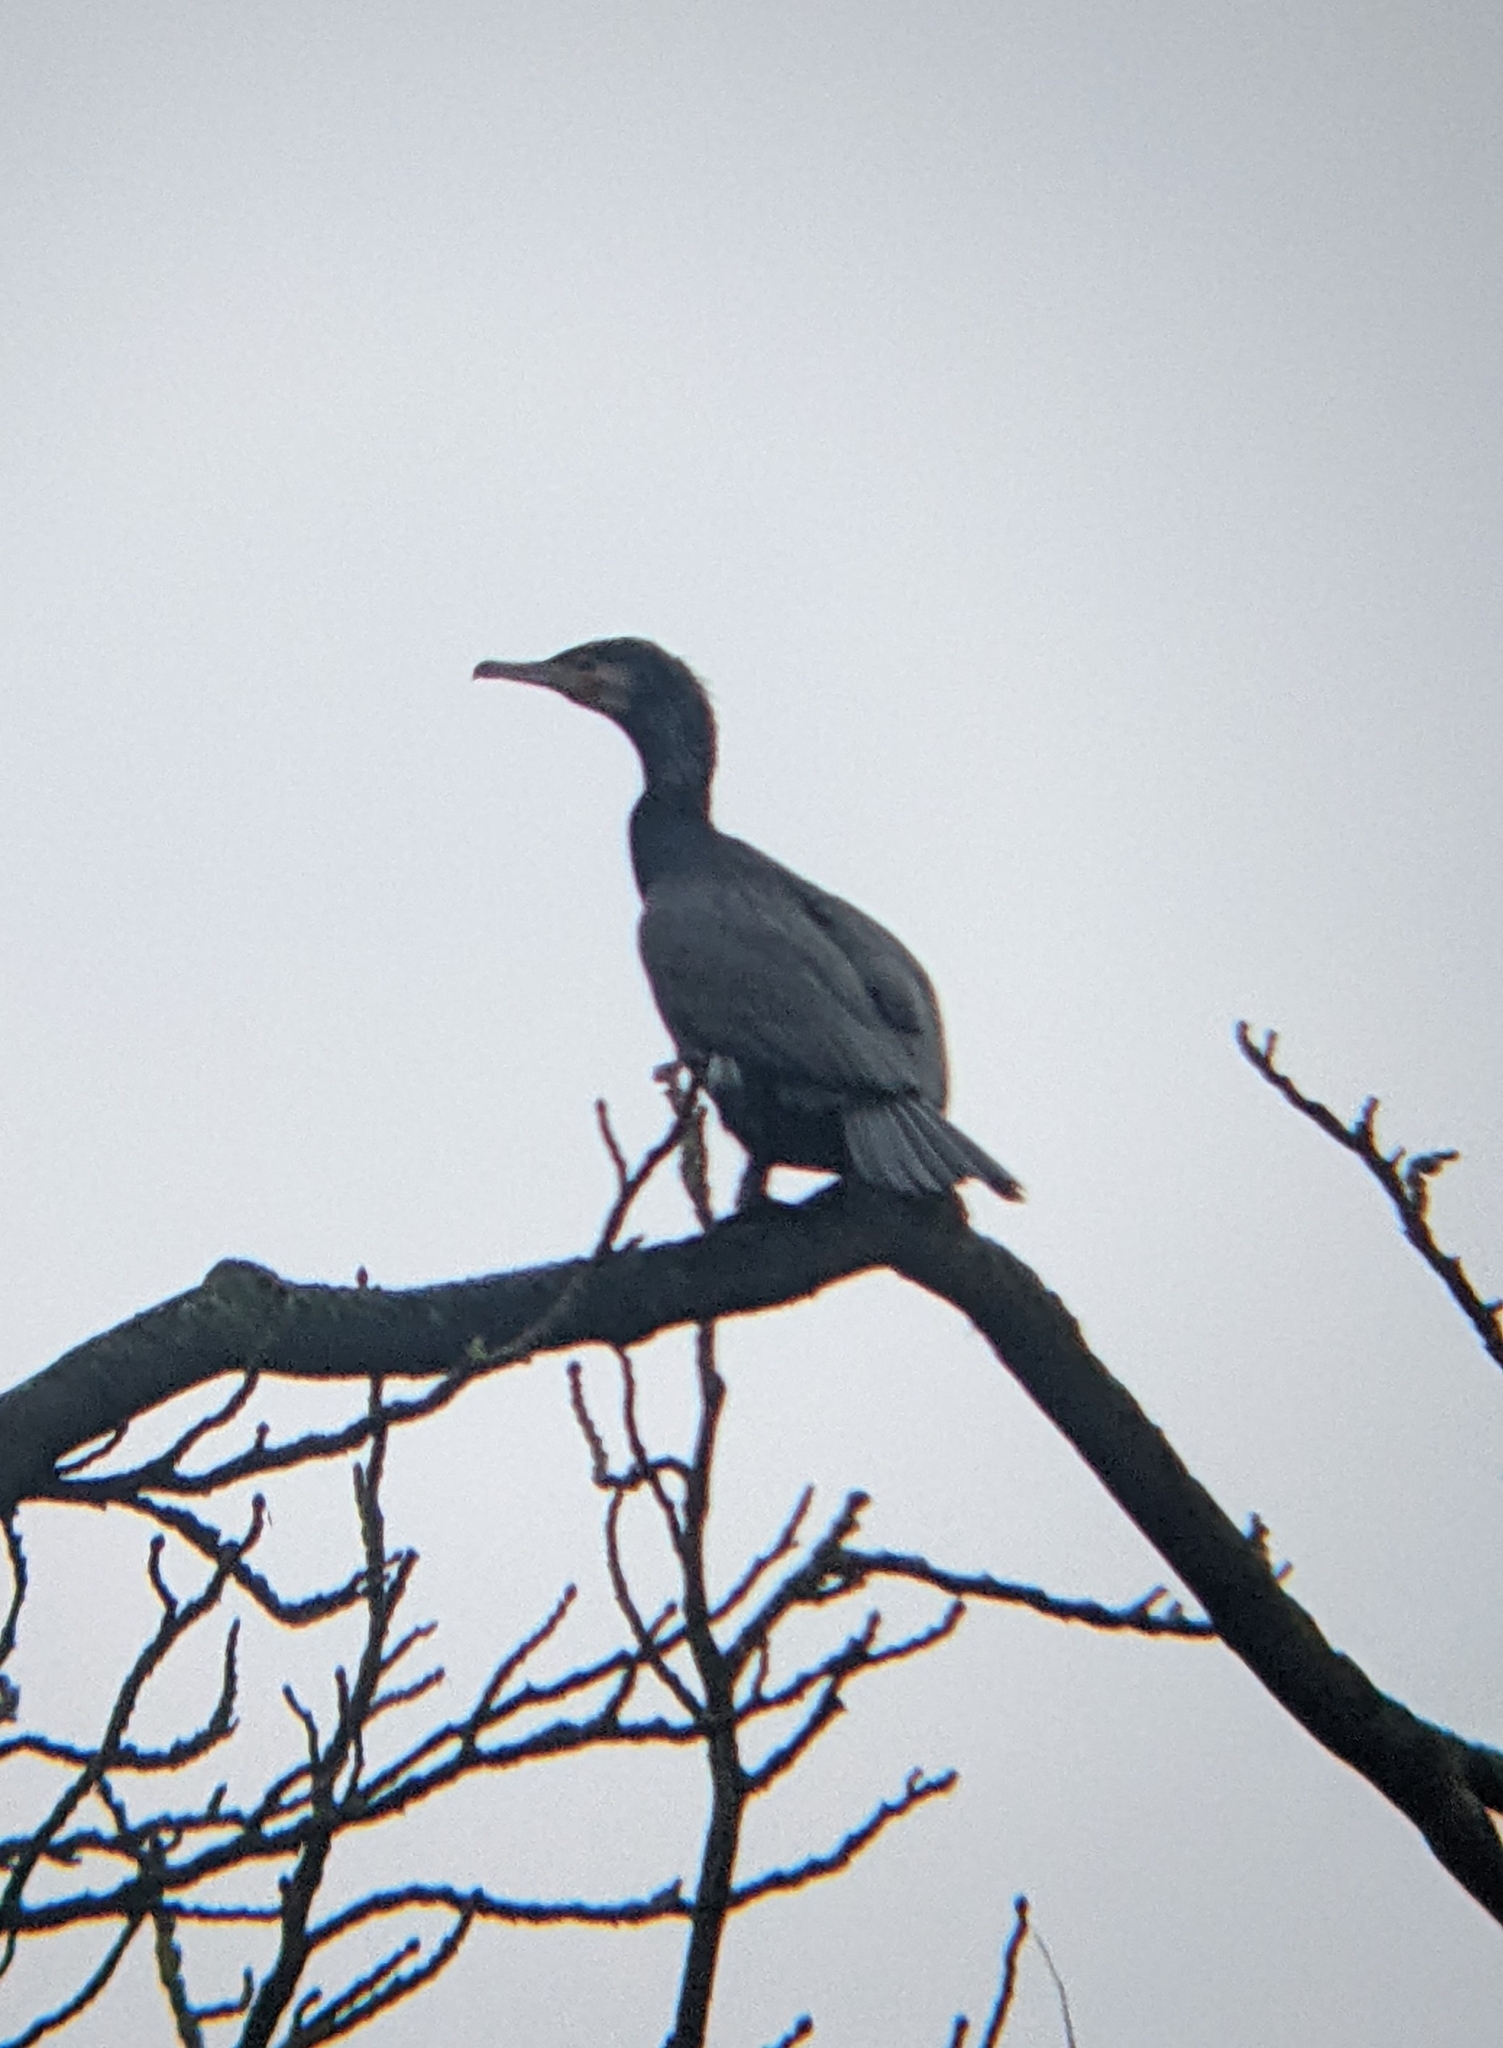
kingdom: Animalia
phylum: Chordata
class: Aves
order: Suliformes
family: Phalacrocoracidae
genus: Phalacrocorax
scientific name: Phalacrocorax carbo
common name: Great cormorant
